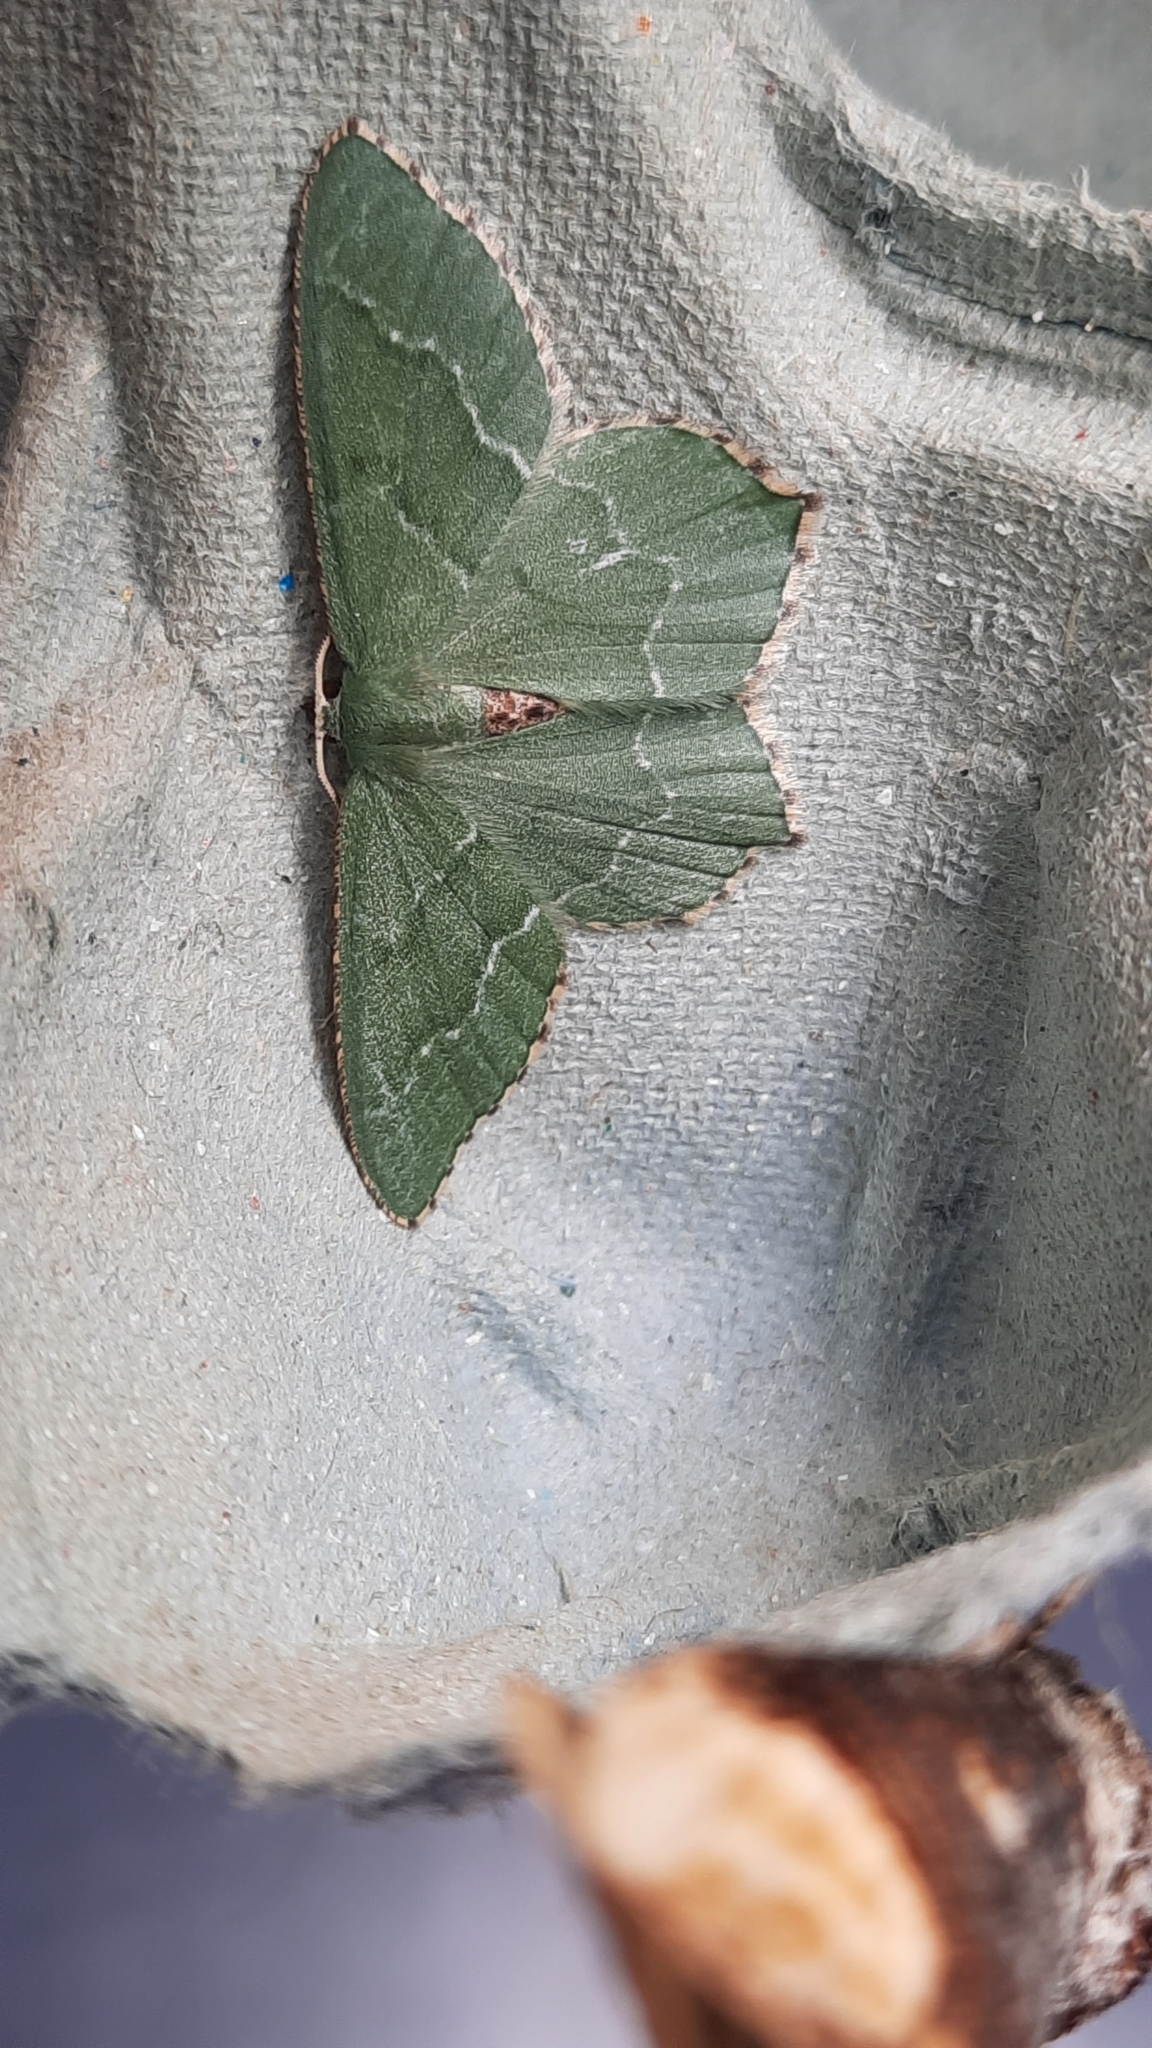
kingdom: Animalia
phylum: Arthropoda
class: Insecta
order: Lepidoptera
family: Geometridae
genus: Hemithea
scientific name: Hemithea aestivaria
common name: Common emerald
